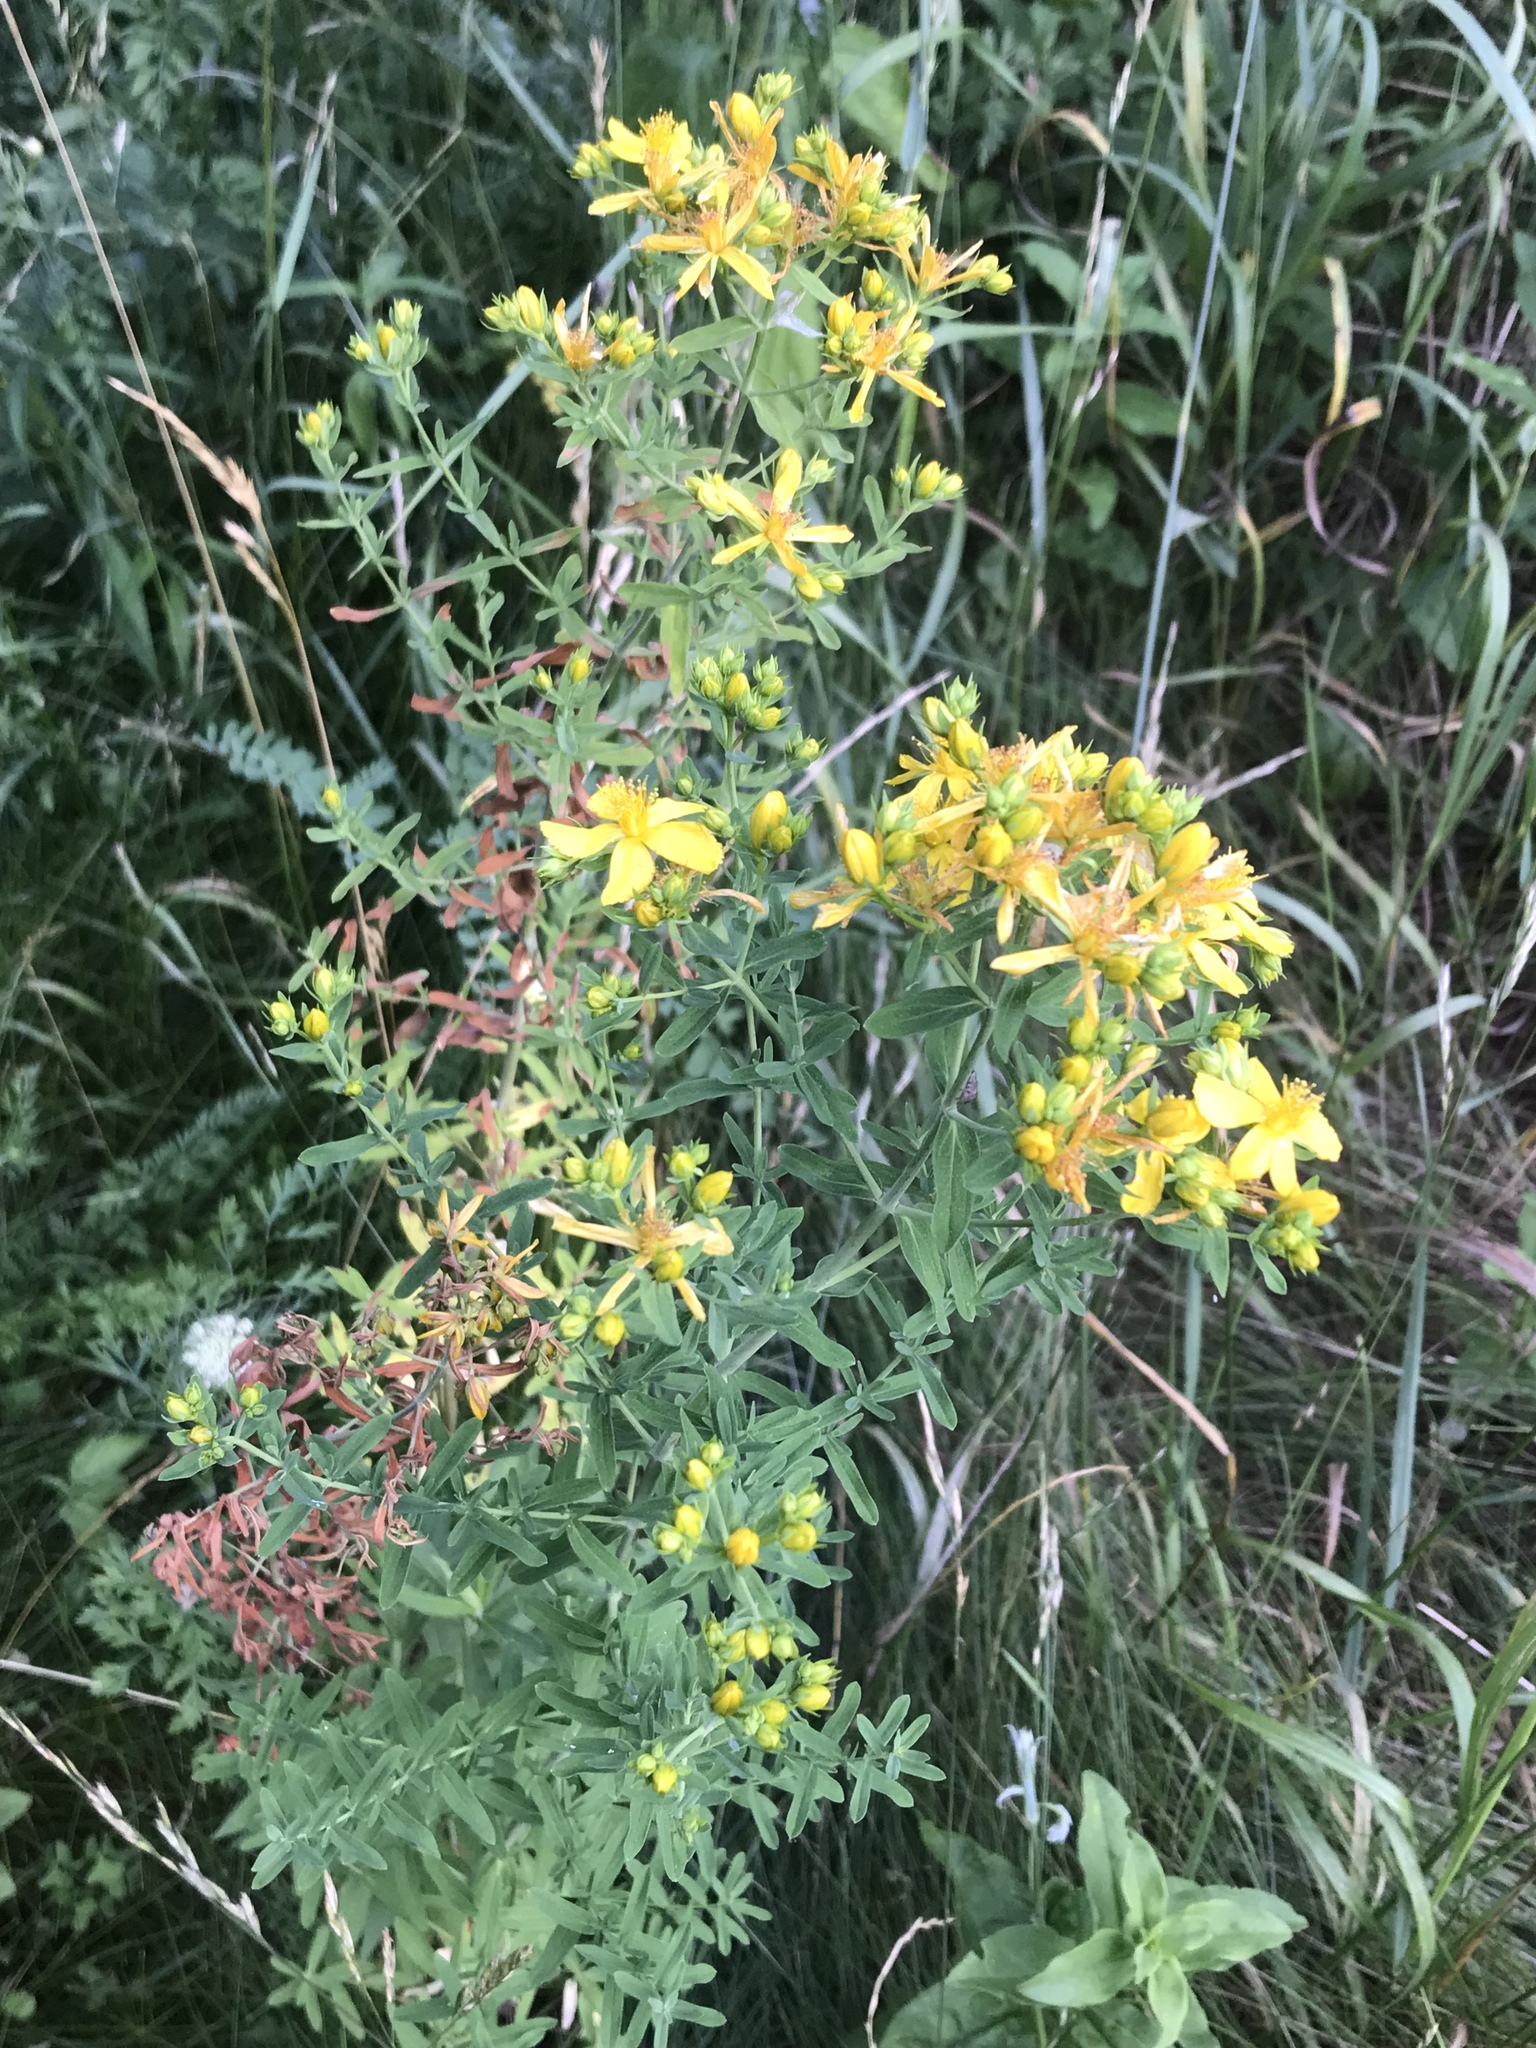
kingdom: Plantae
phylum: Tracheophyta
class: Magnoliopsida
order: Malpighiales
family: Hypericaceae
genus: Hypericum
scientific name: Hypericum perforatum
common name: Common st. johnswort
